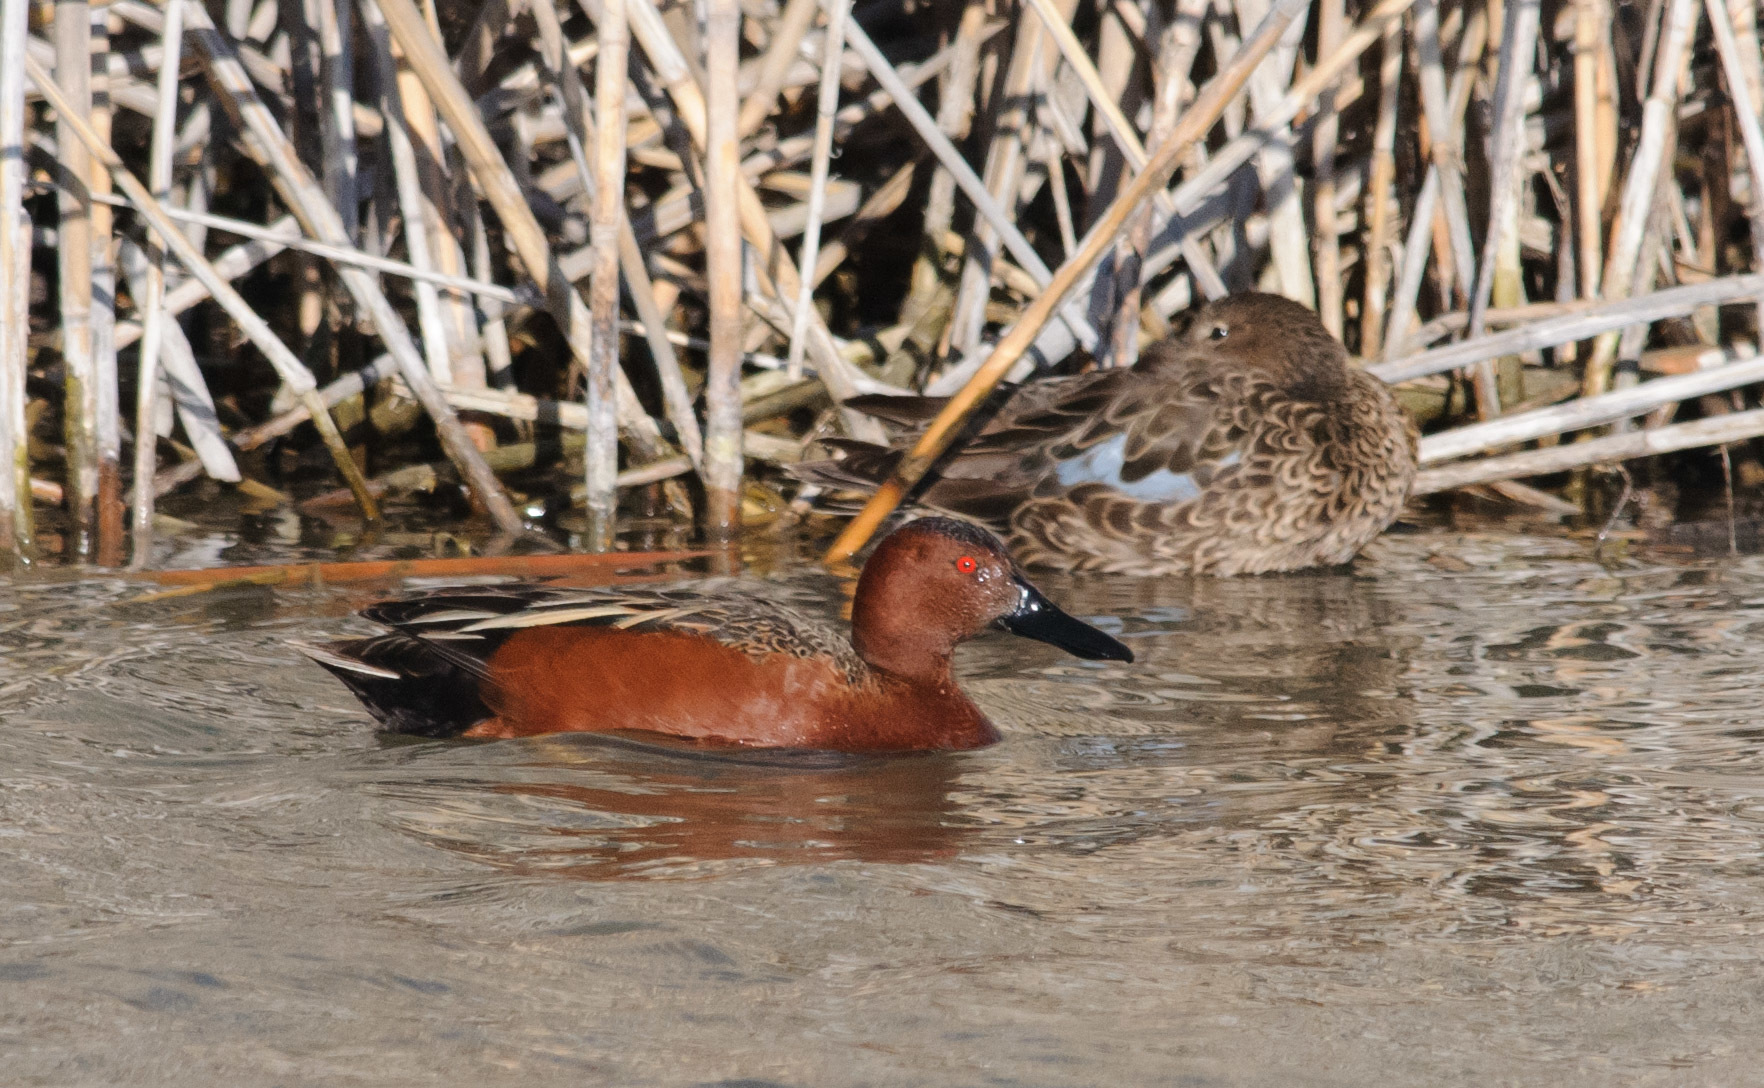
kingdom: Animalia
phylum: Chordata
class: Aves
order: Anseriformes
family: Anatidae
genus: Spatula
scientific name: Spatula cyanoptera
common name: Cinnamon teal
